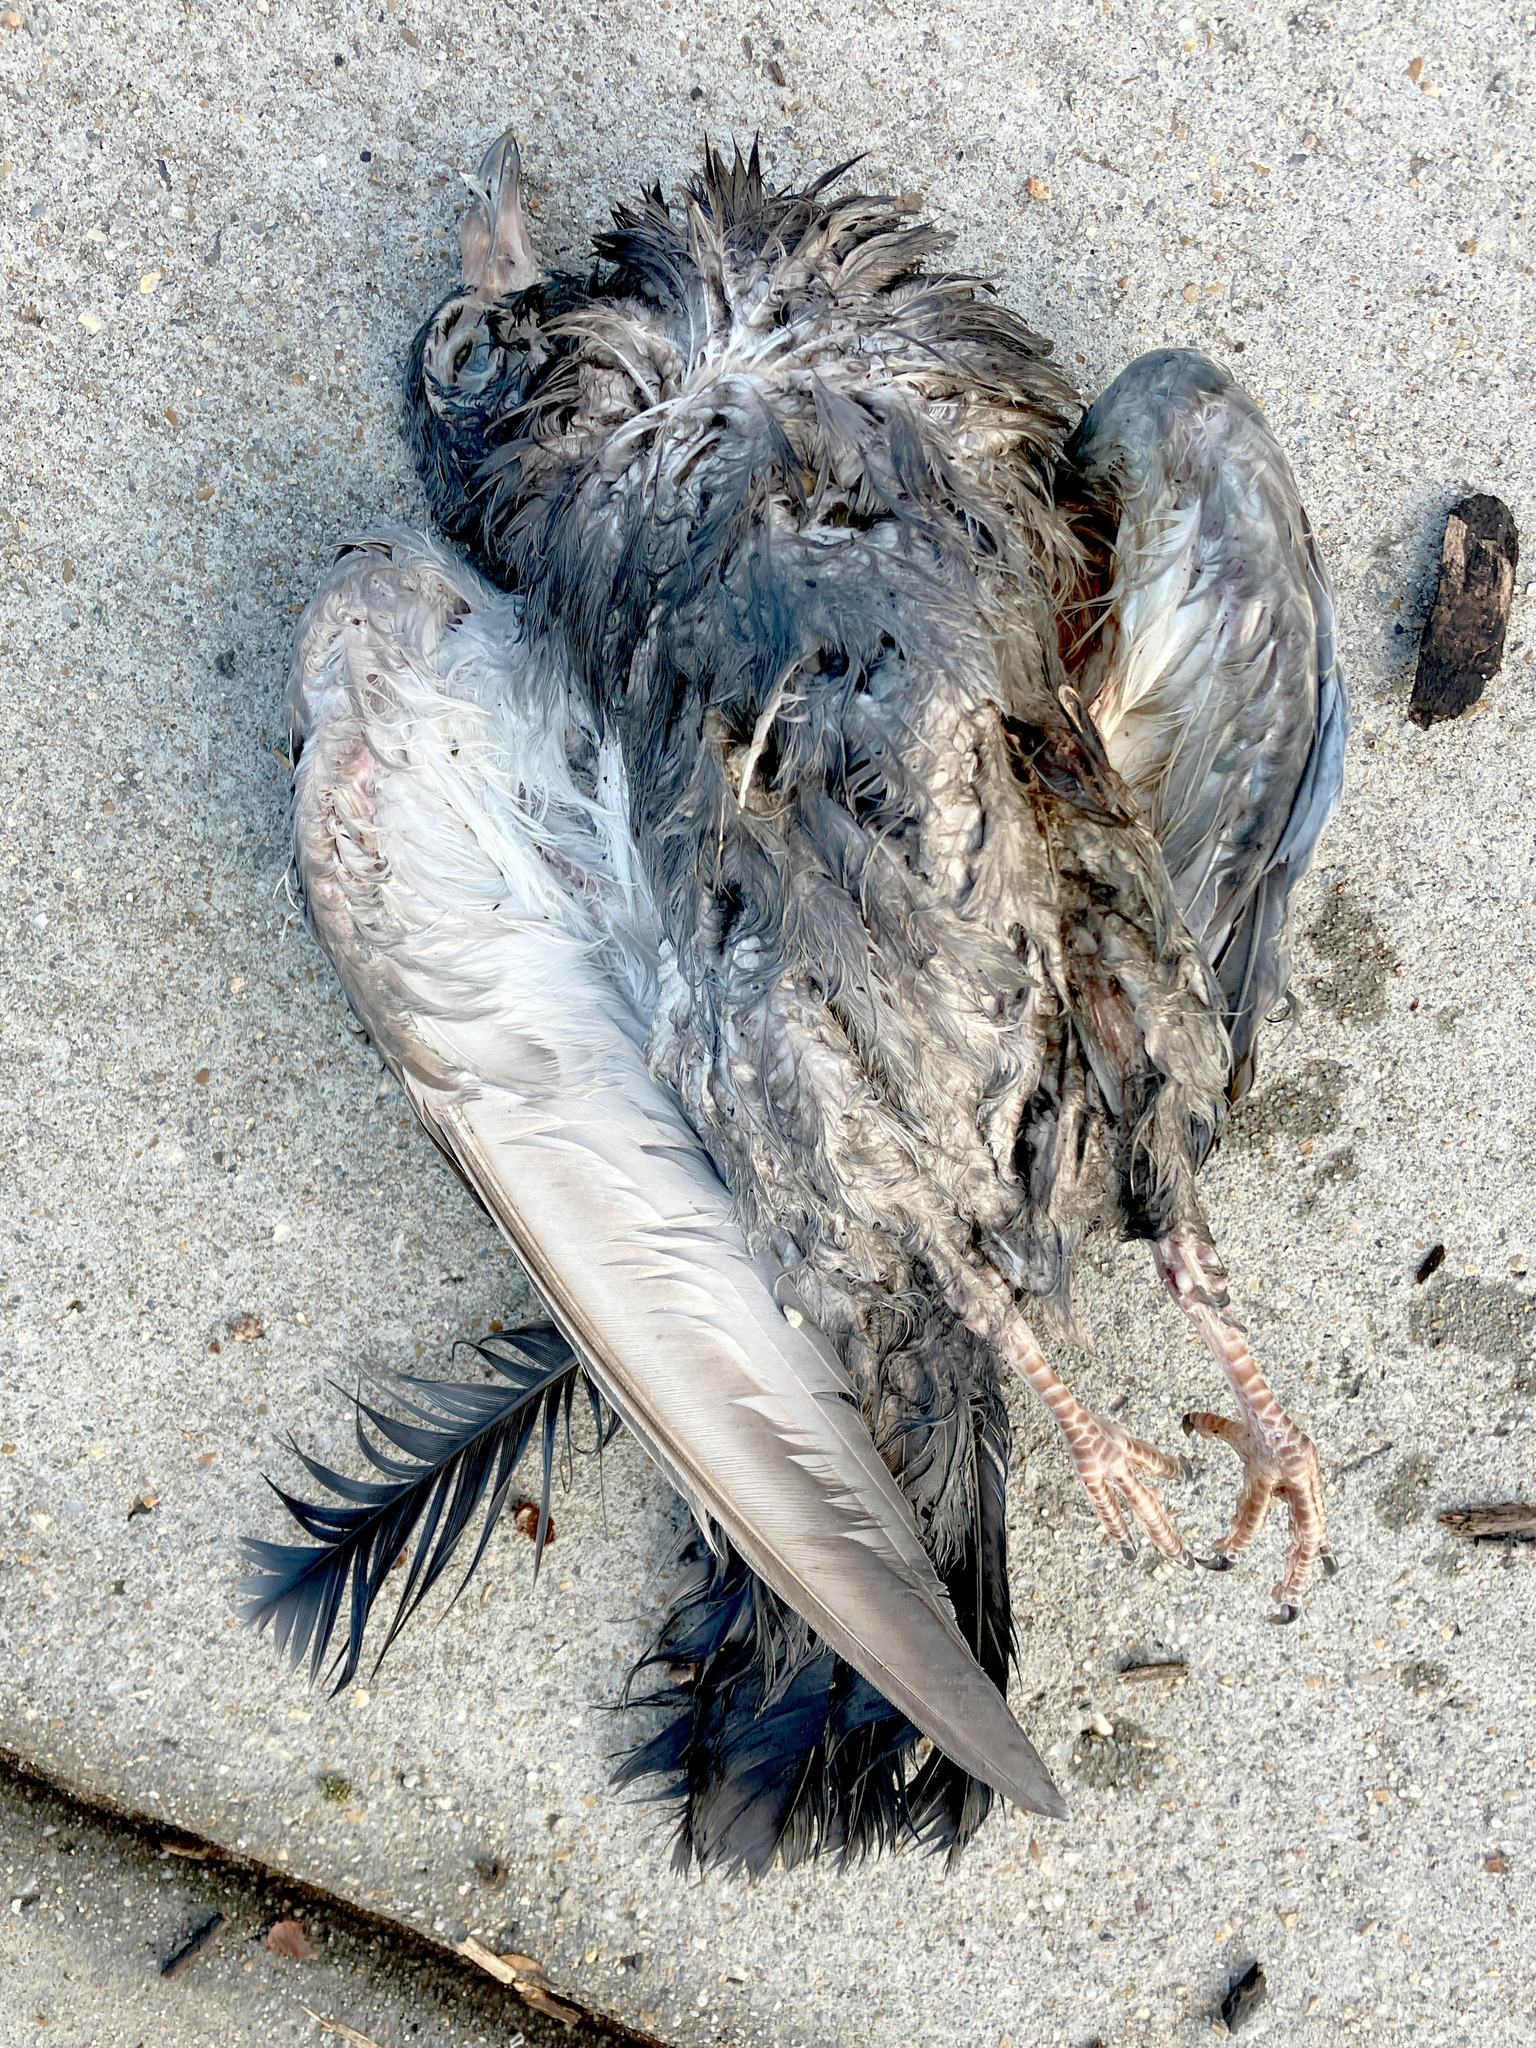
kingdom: Animalia
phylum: Chordata
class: Aves
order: Columbiformes
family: Columbidae
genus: Columba
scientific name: Columba livia
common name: Rock pigeon
